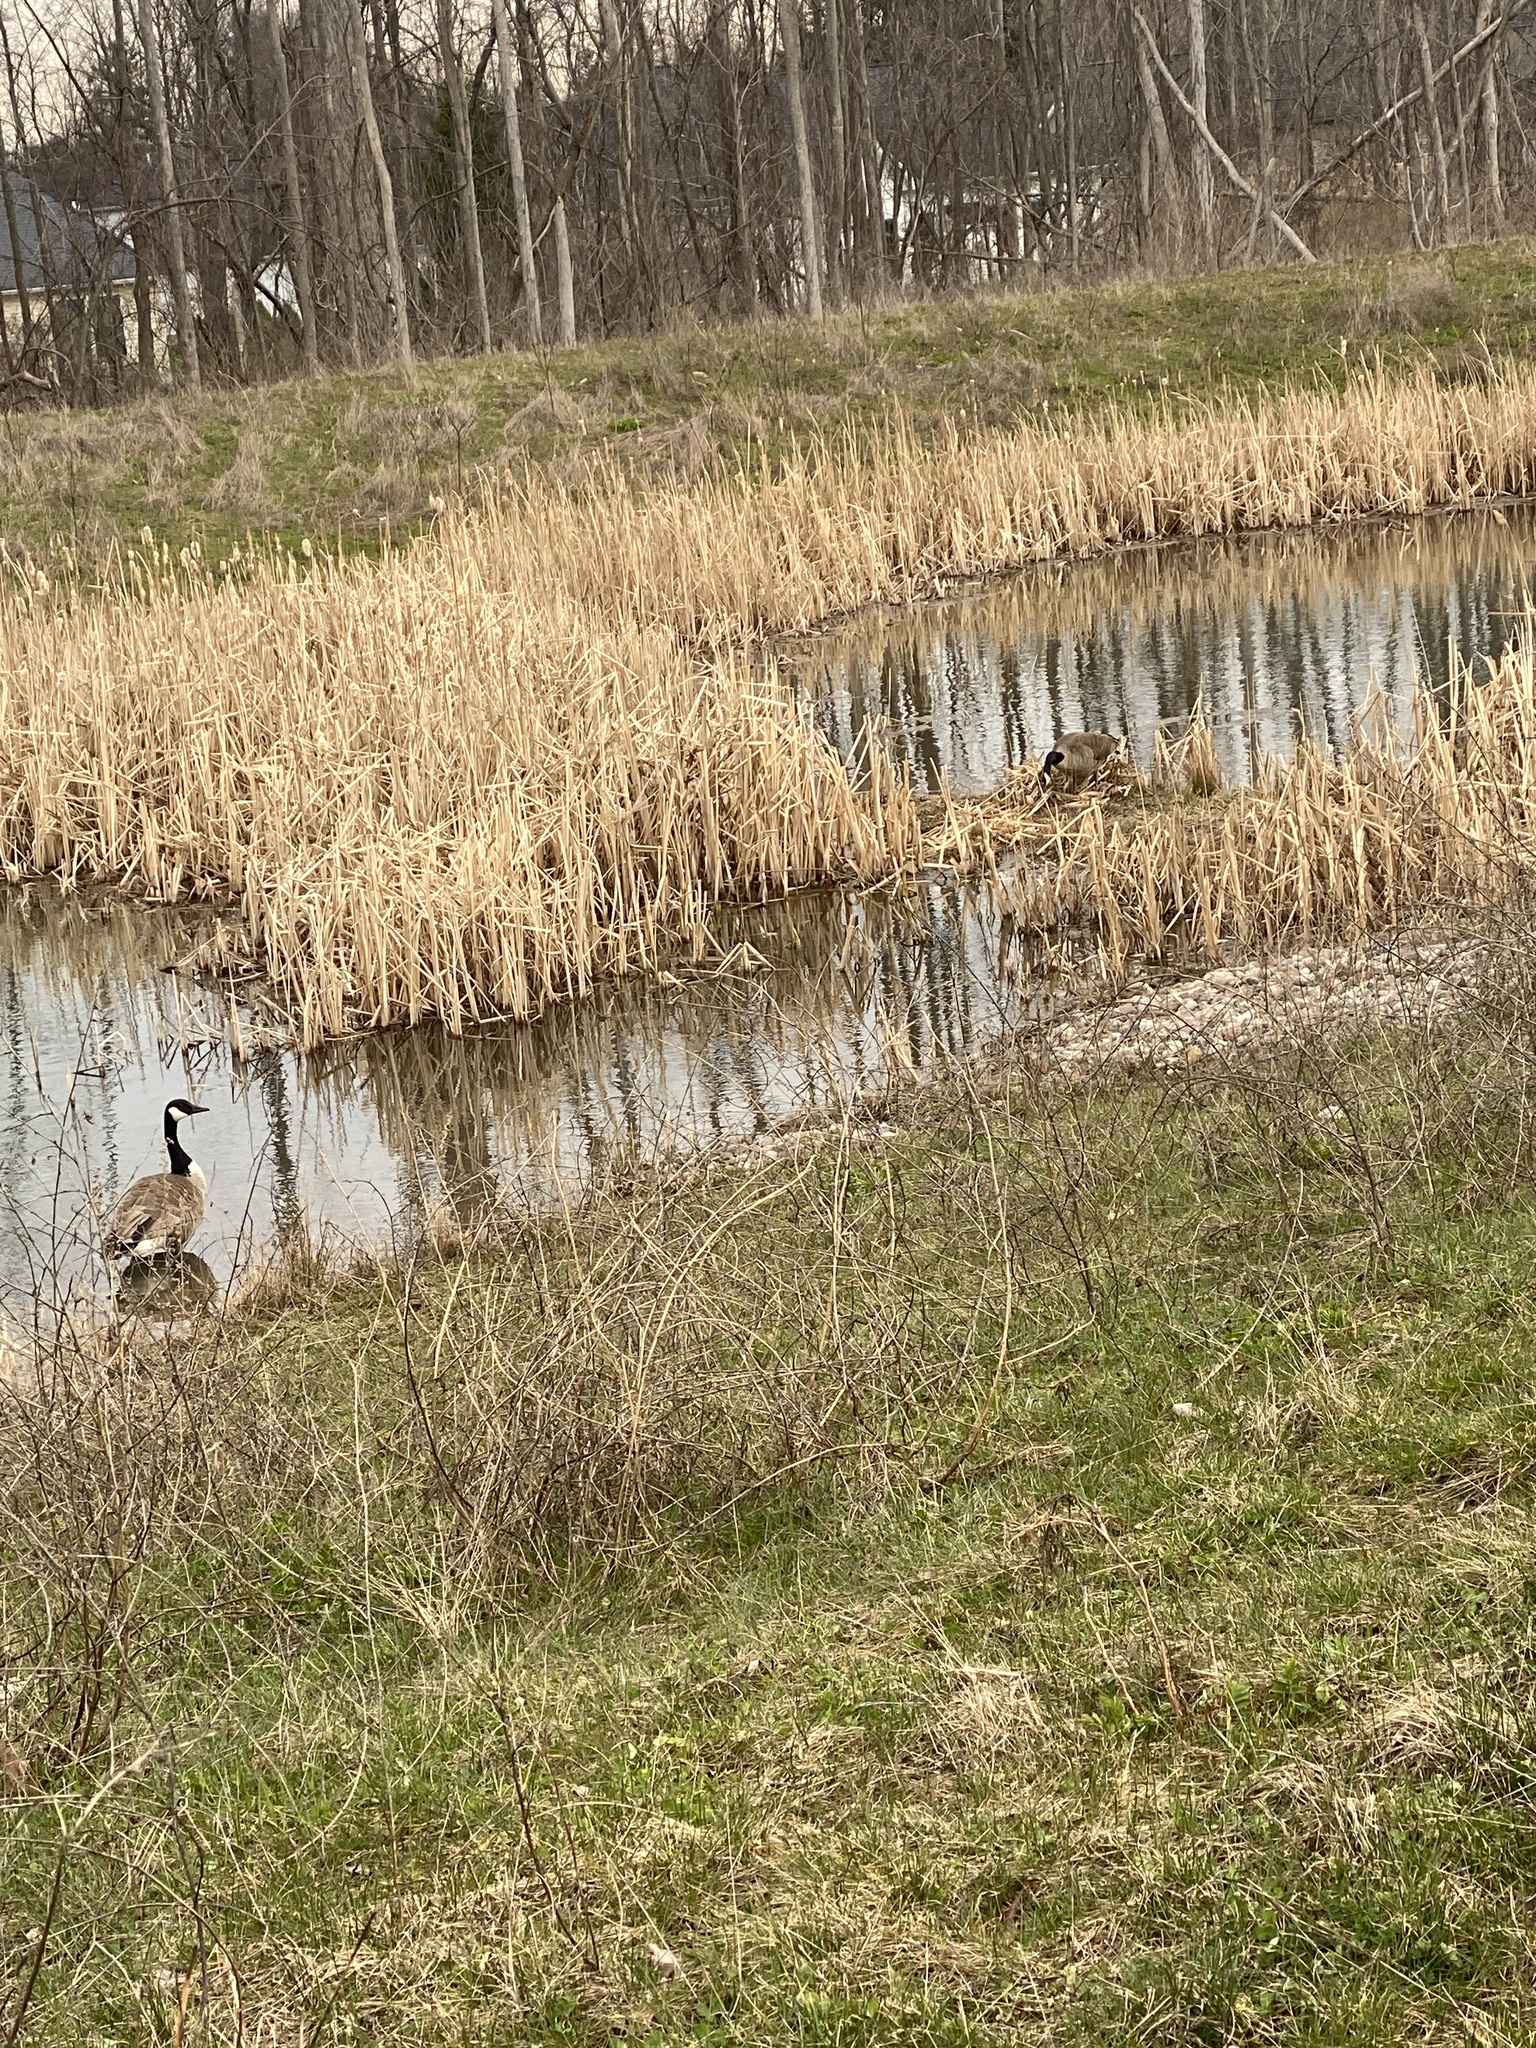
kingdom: Animalia
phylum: Chordata
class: Aves
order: Anseriformes
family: Anatidae
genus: Branta
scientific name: Branta canadensis
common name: Canada goose
